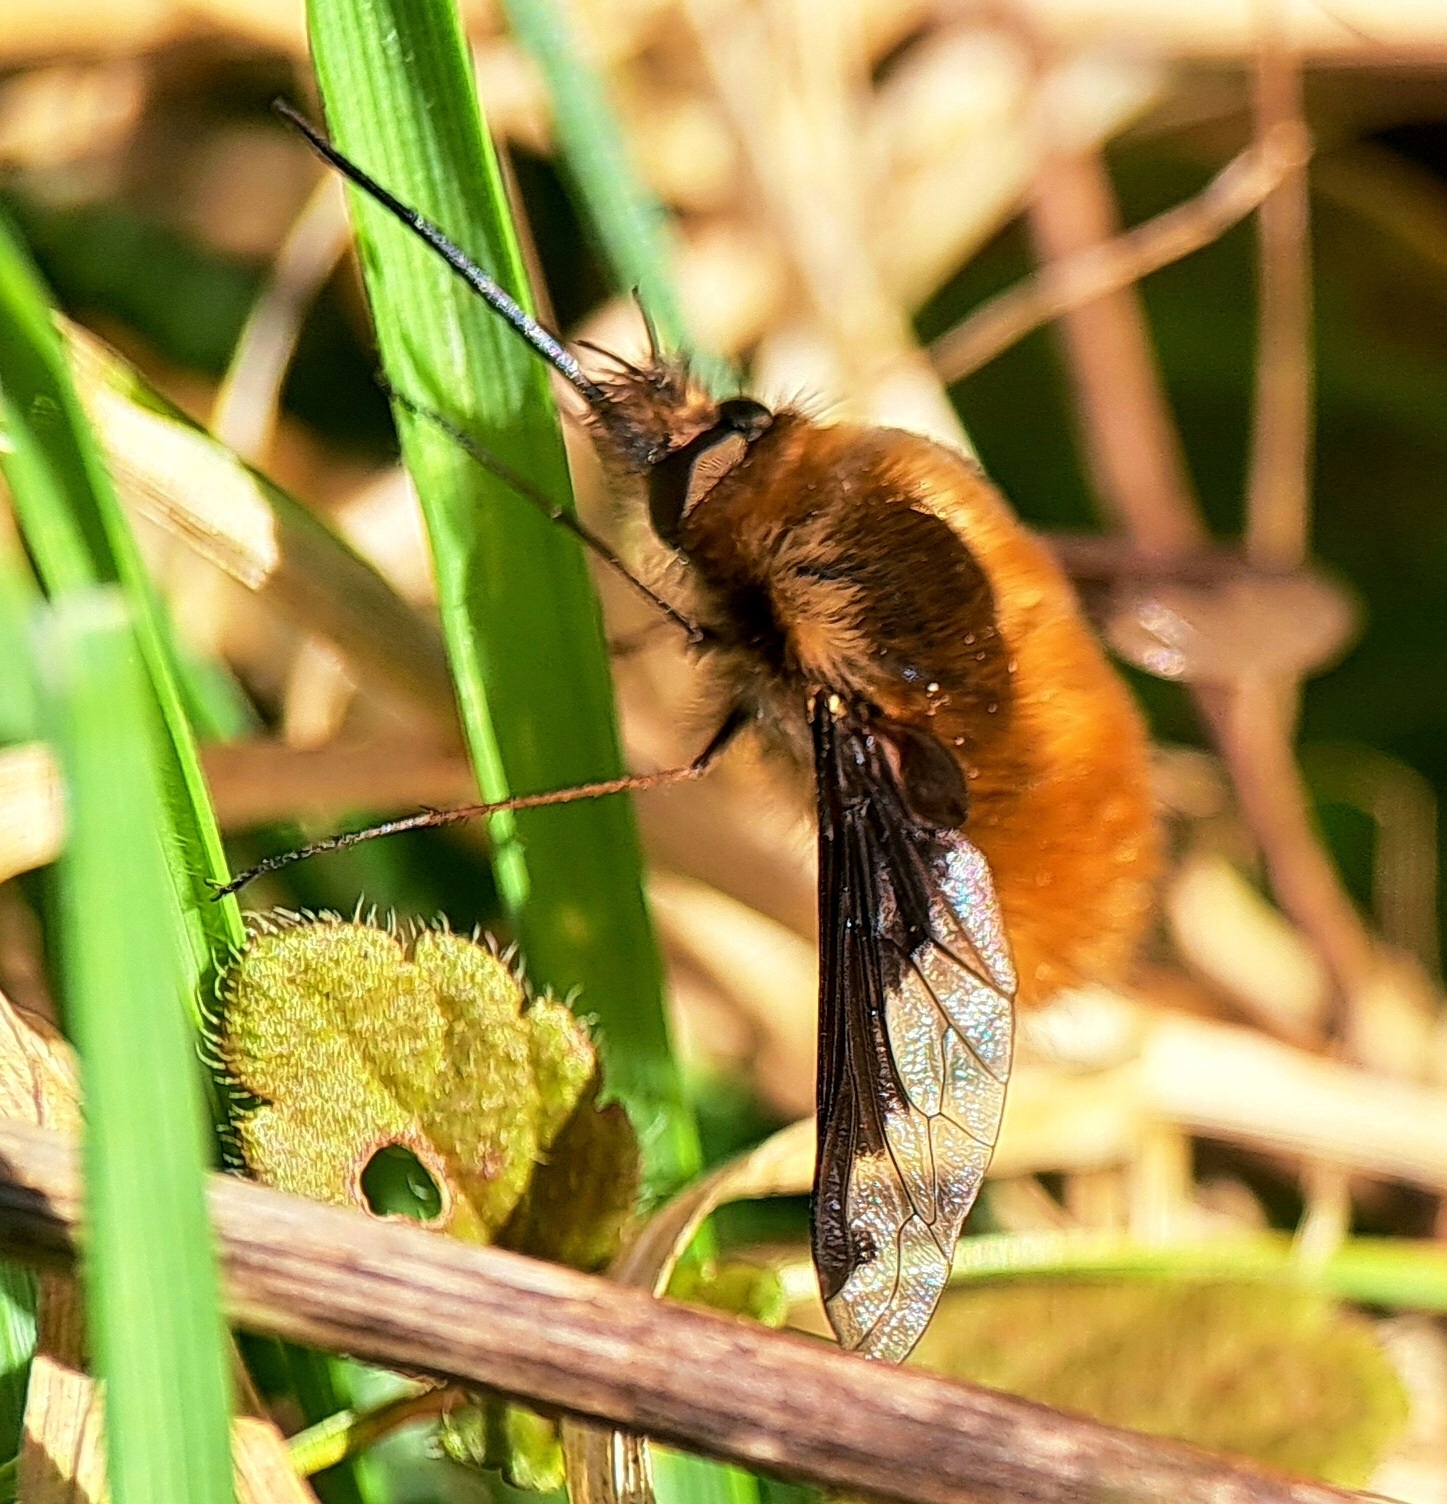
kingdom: Animalia
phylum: Arthropoda
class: Insecta
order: Diptera
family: Bombyliidae
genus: Bombylius
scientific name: Bombylius major
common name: Bee fly
